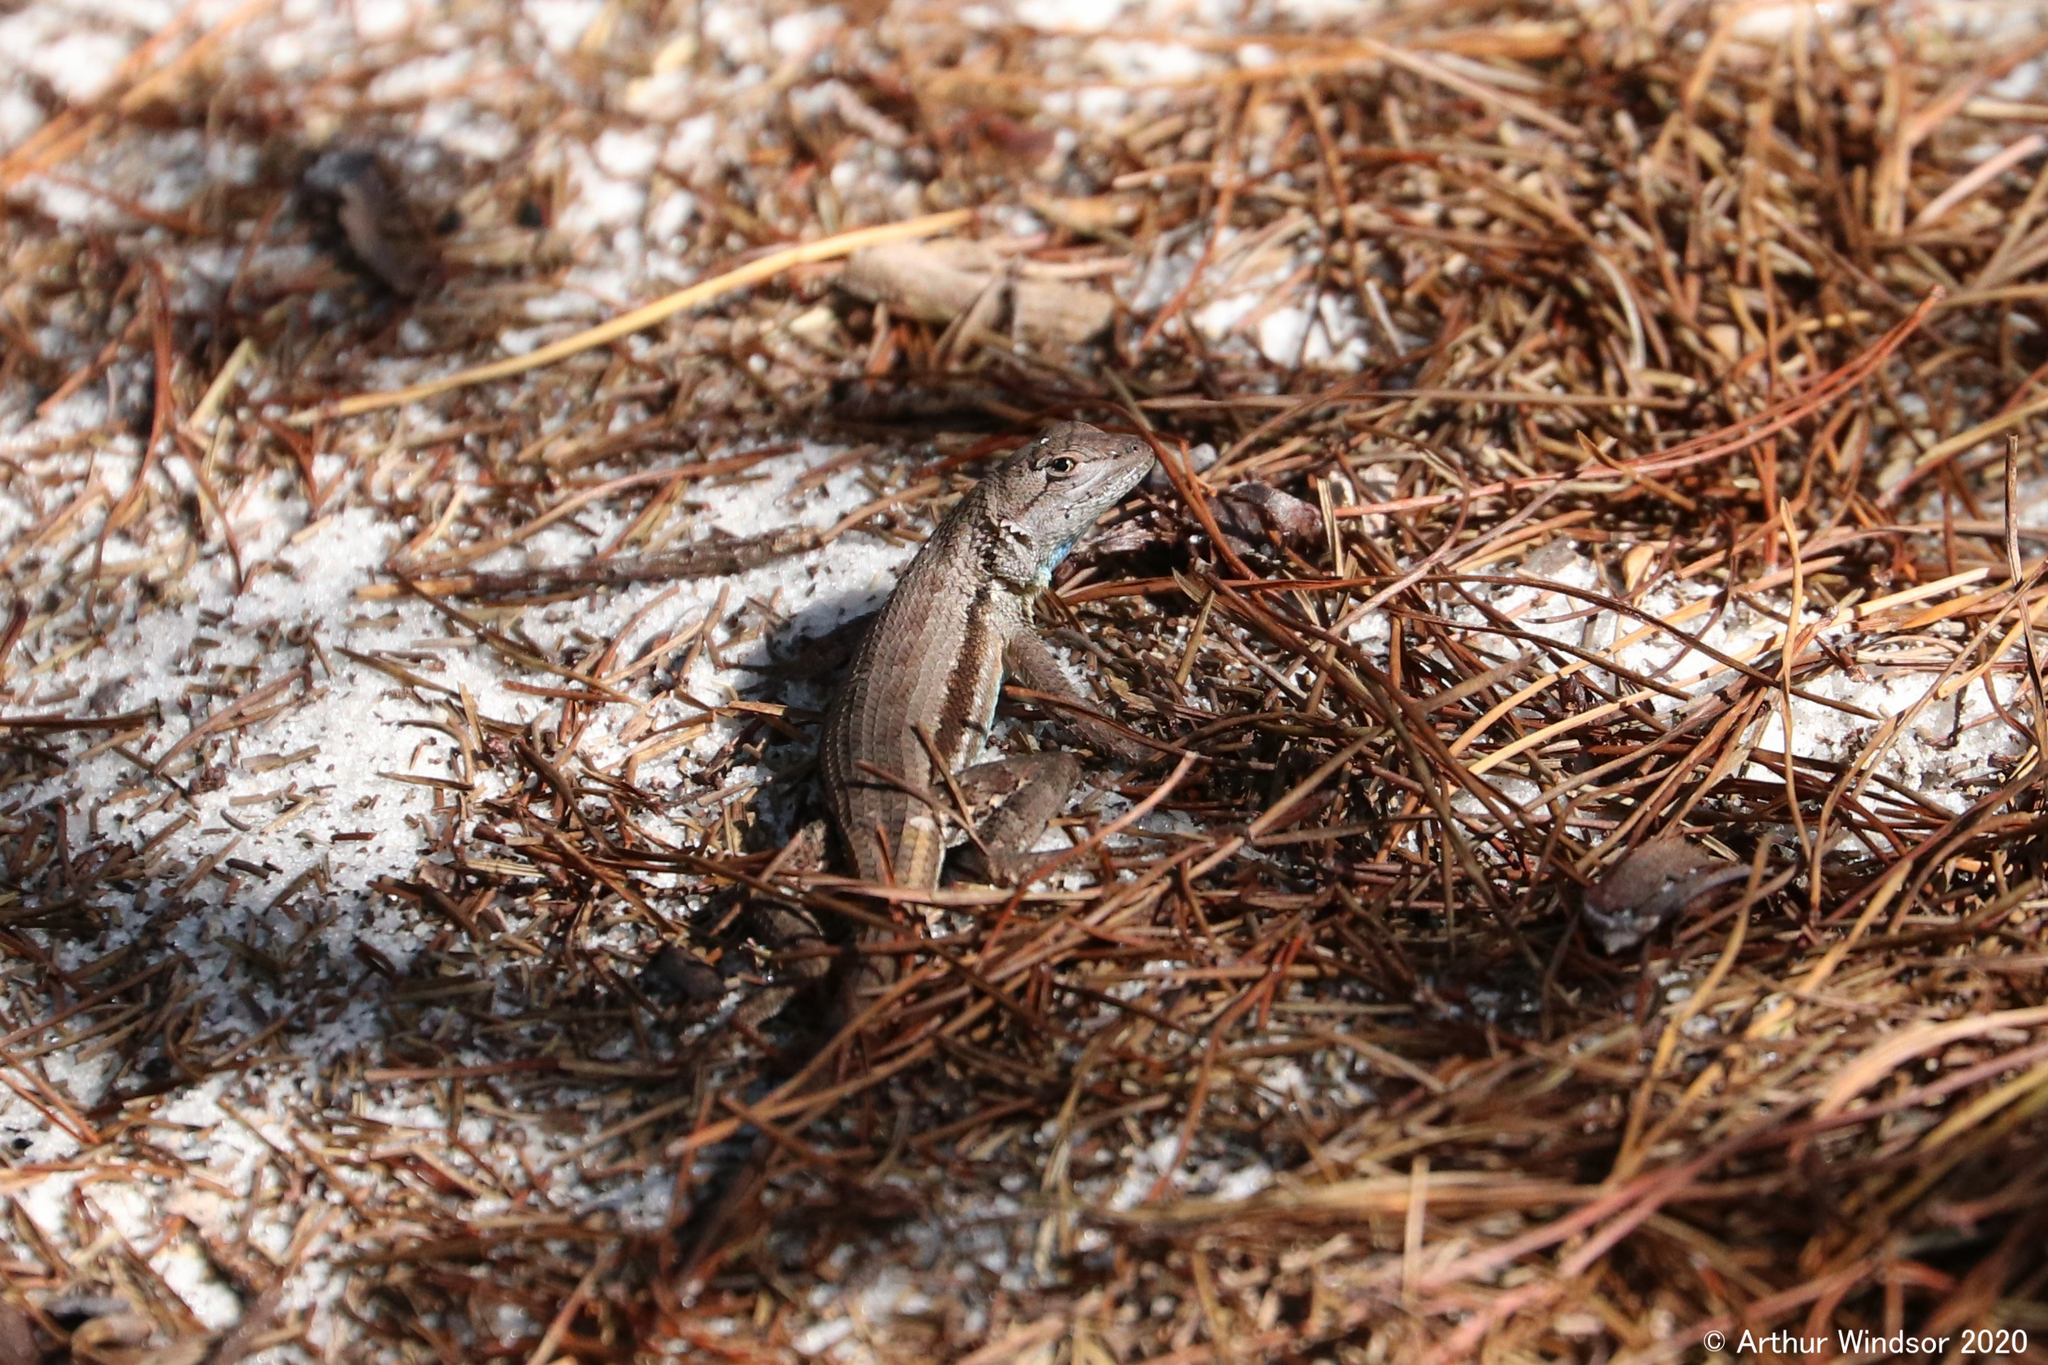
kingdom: Animalia
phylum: Chordata
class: Squamata
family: Phrynosomatidae
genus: Sceloporus
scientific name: Sceloporus woodi
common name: Florida scrub lizard
